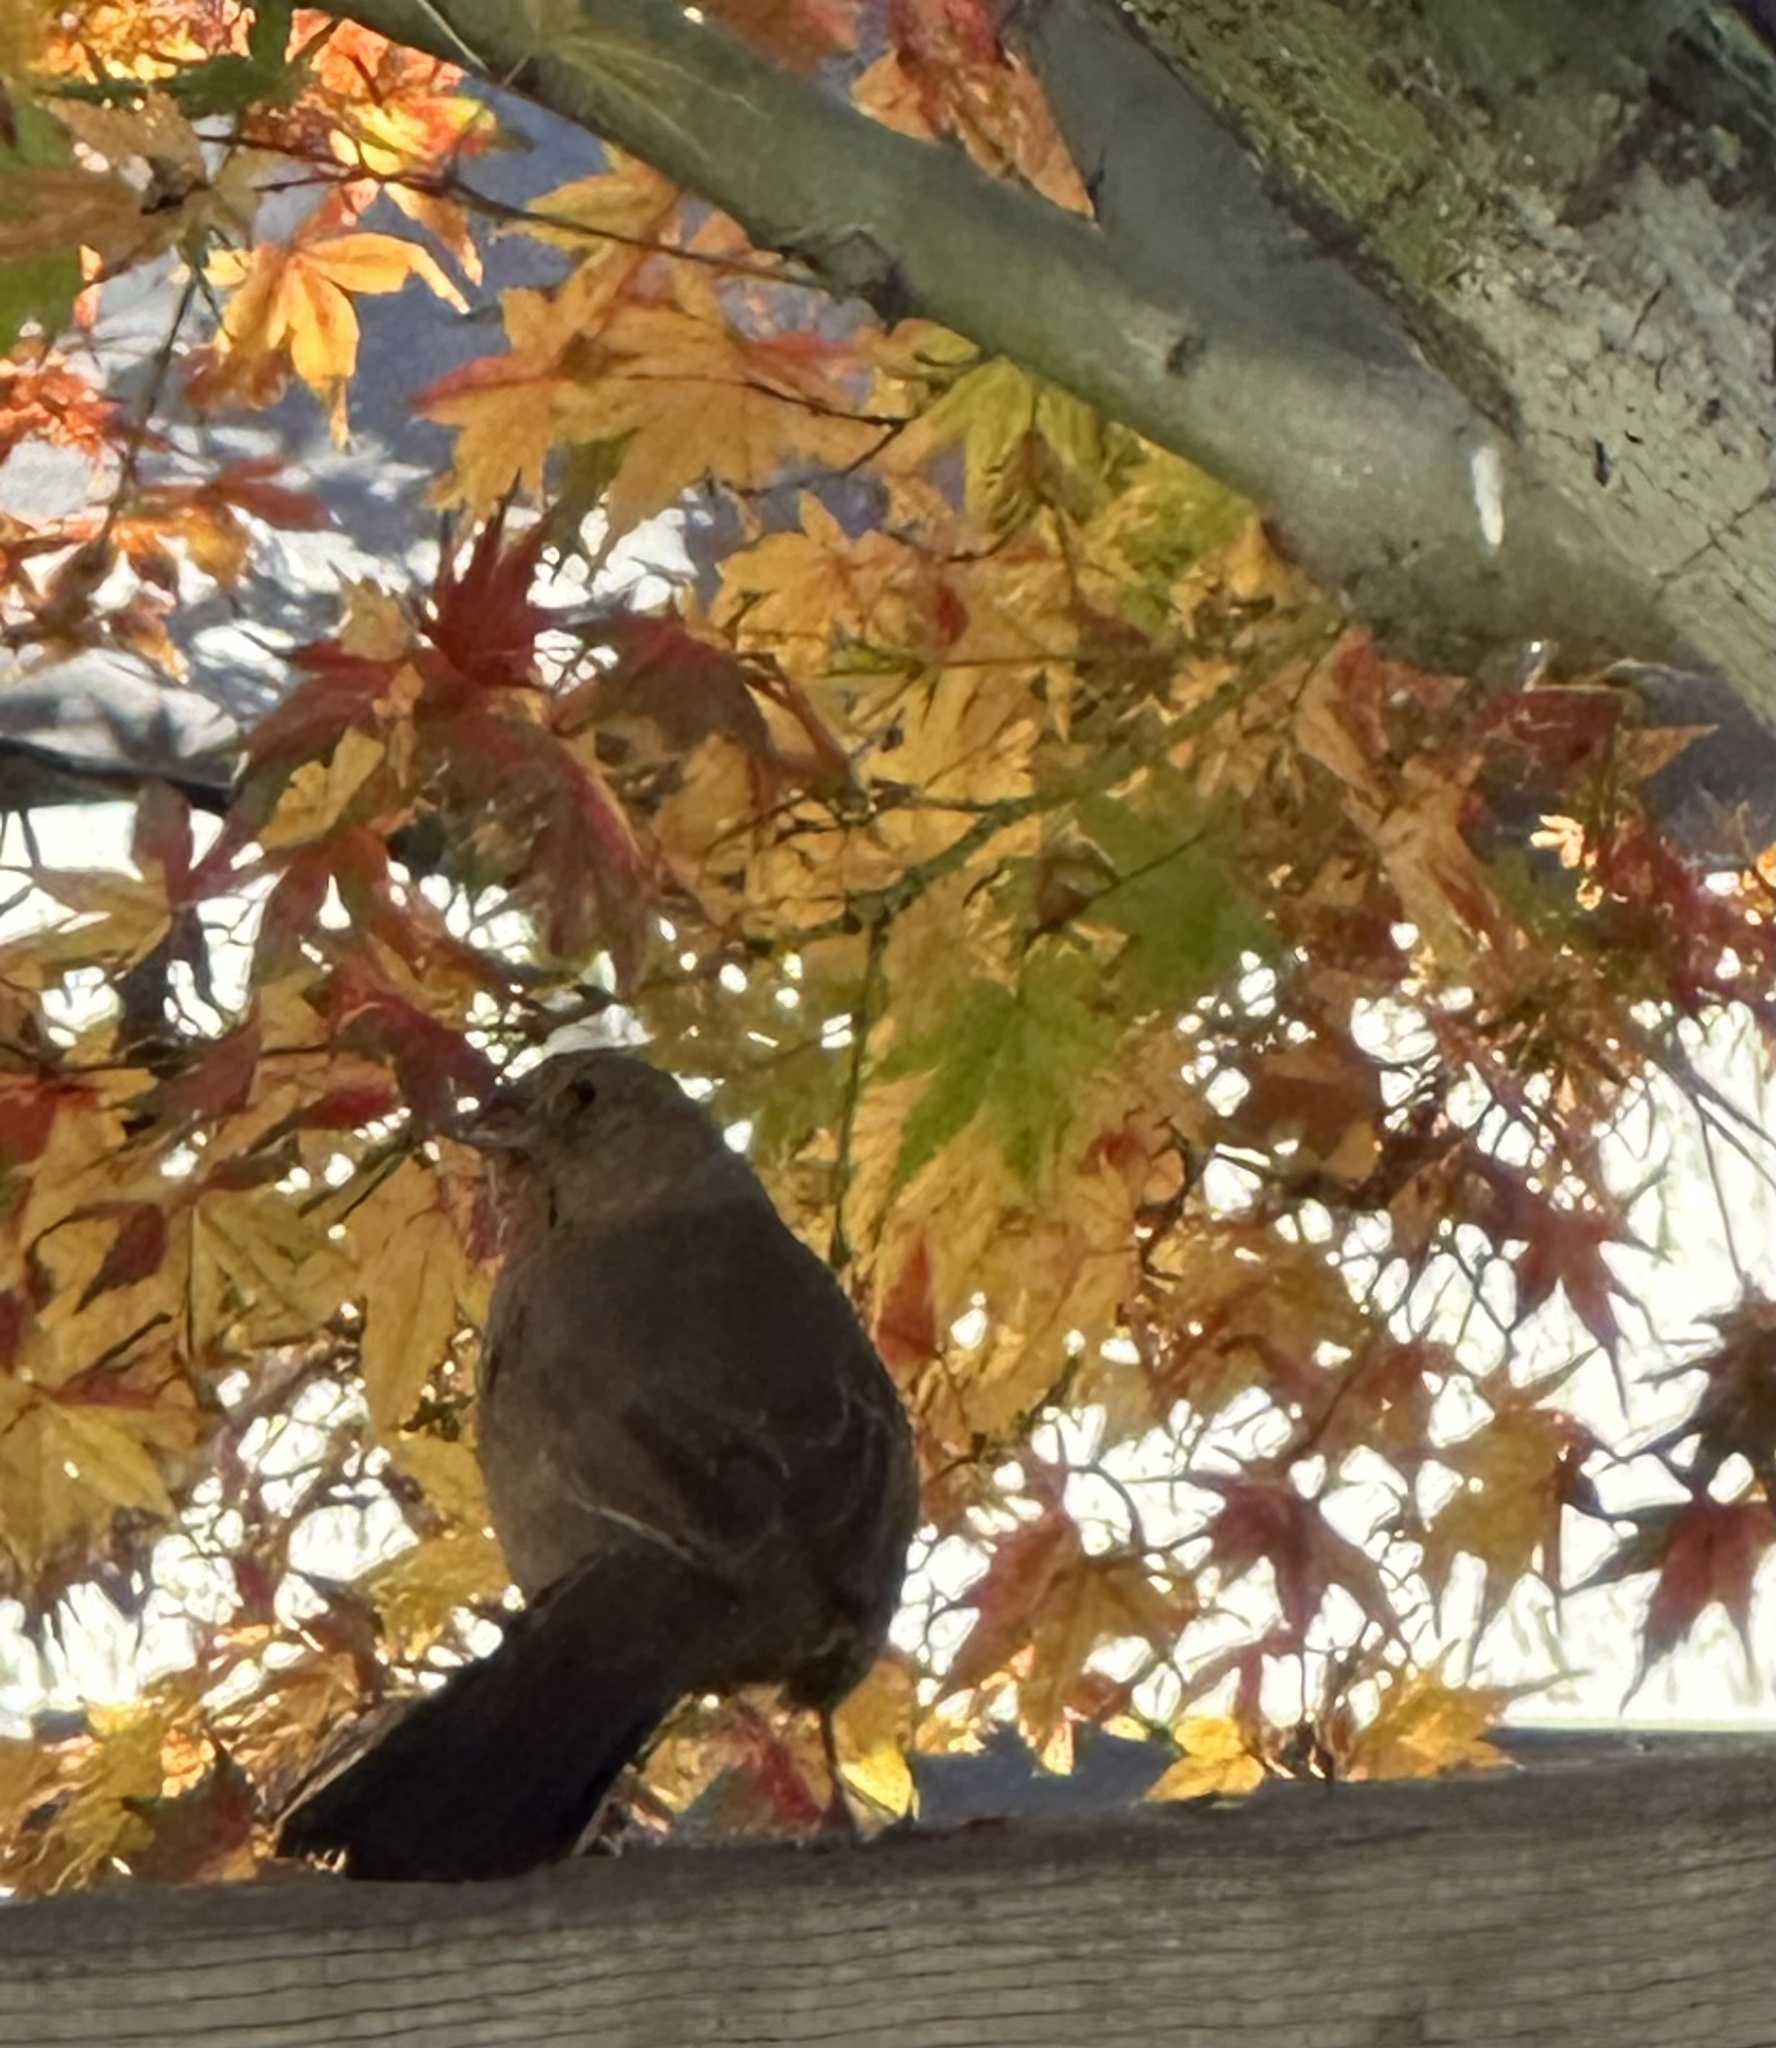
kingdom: Animalia
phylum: Chordata
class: Aves
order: Passeriformes
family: Passerellidae
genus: Melozone
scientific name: Melozone crissalis
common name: California towhee
